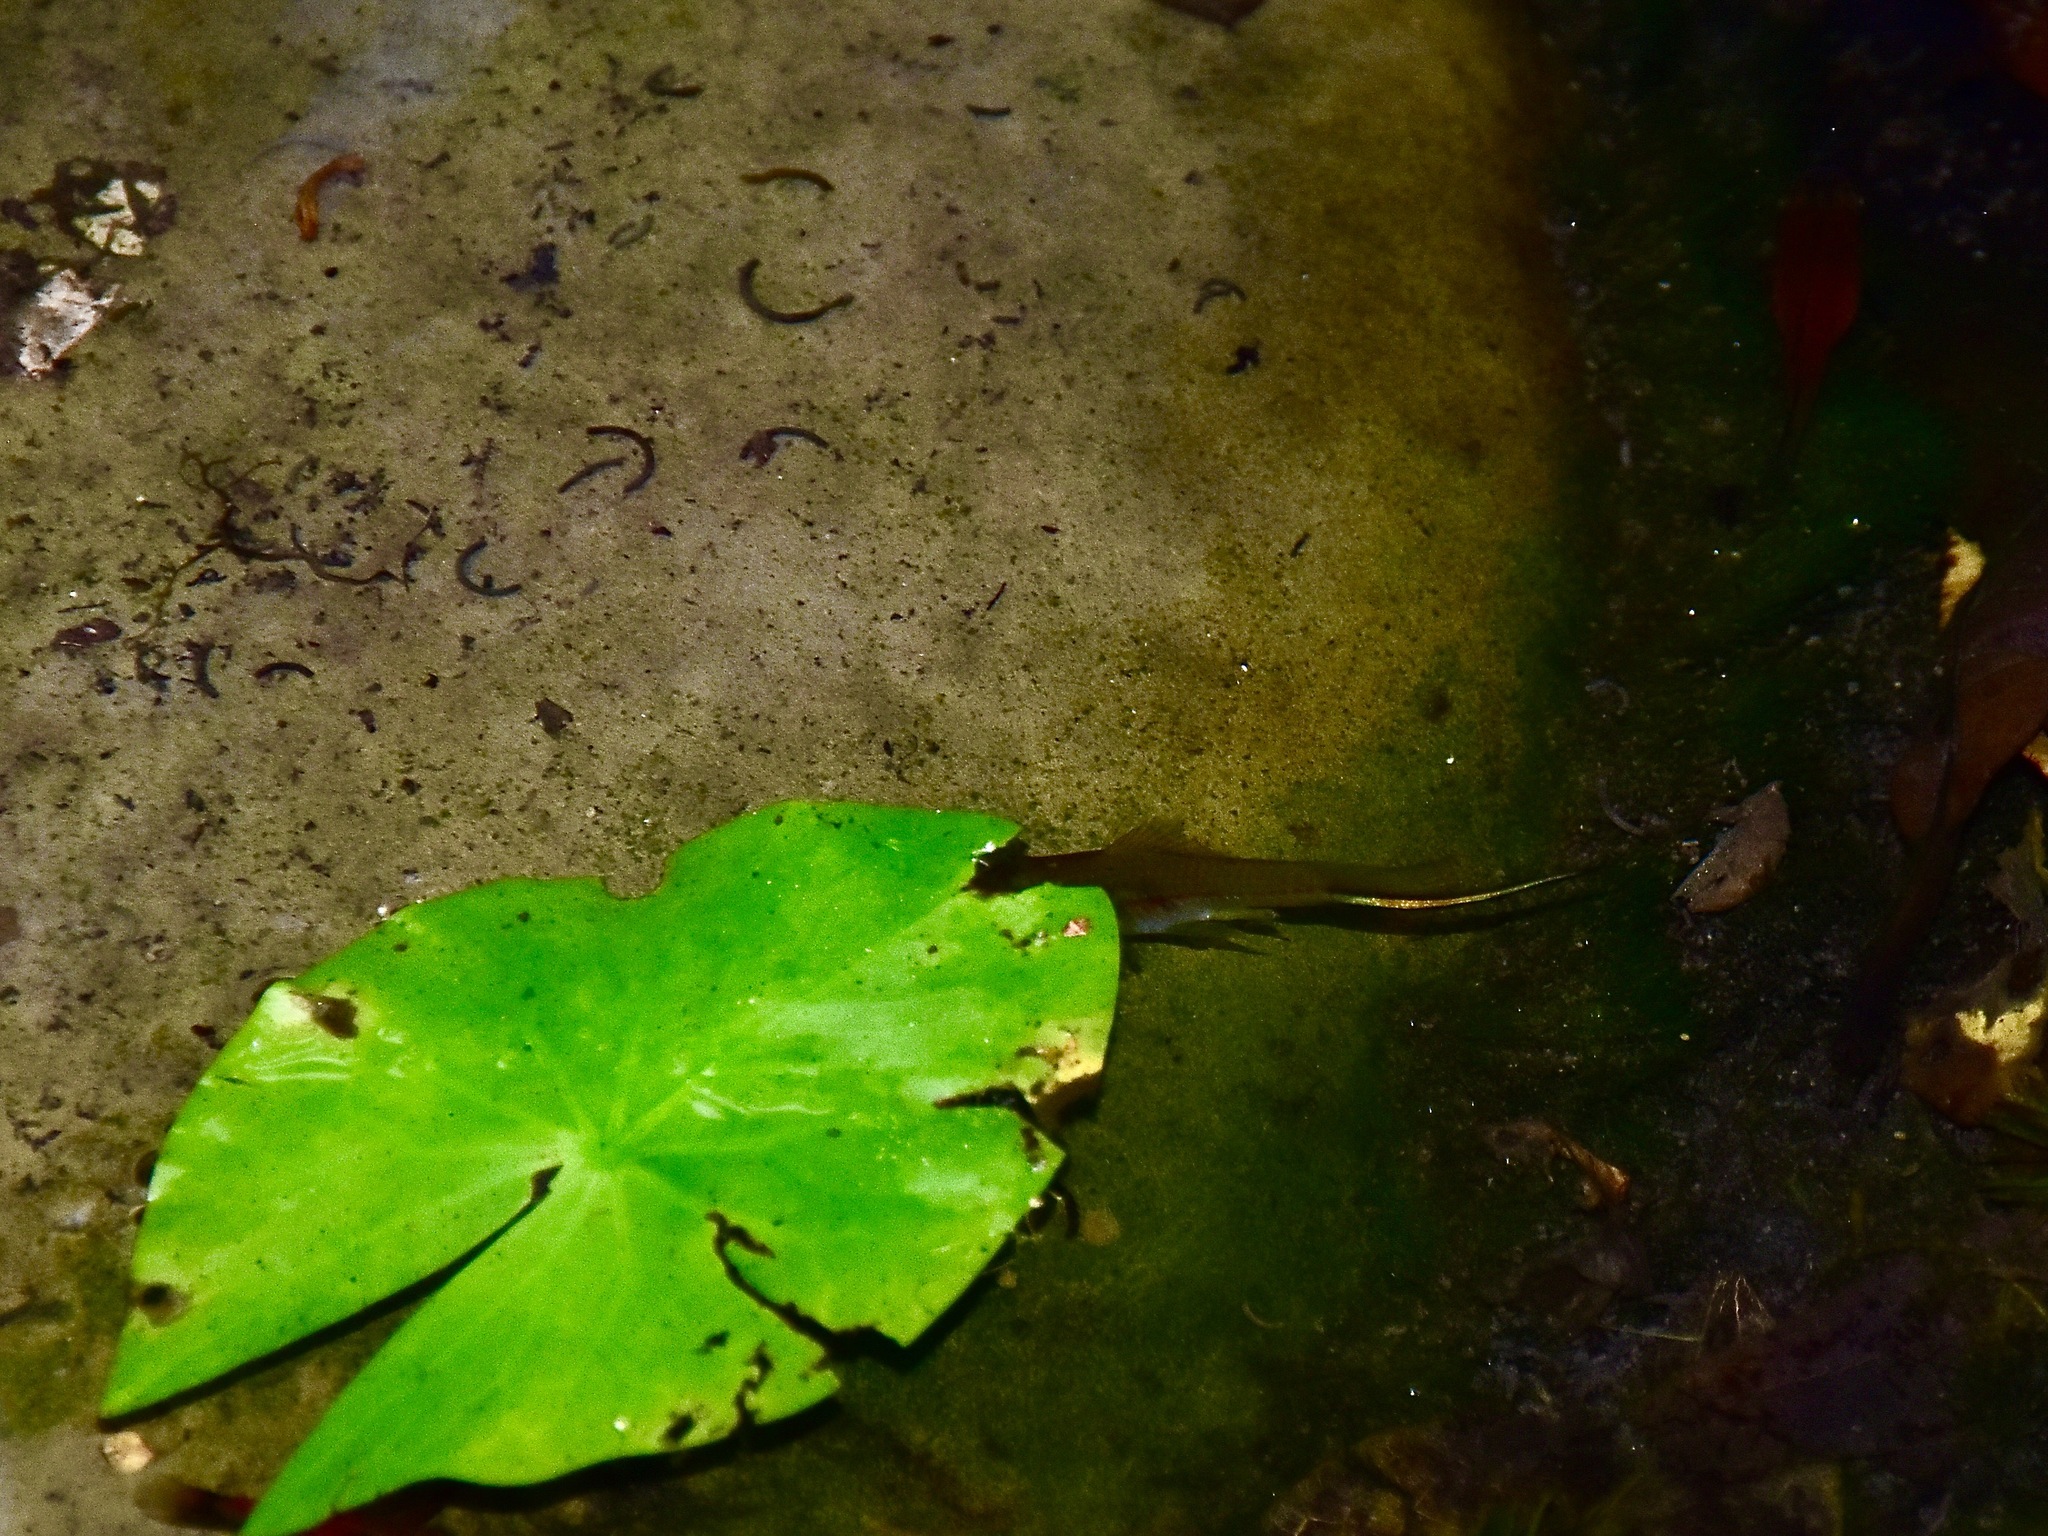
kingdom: Animalia
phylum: Chordata
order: Cyprinodontiformes
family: Poeciliidae
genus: Xiphophorus
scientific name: Xiphophorus hellerii
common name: Green swordtail
